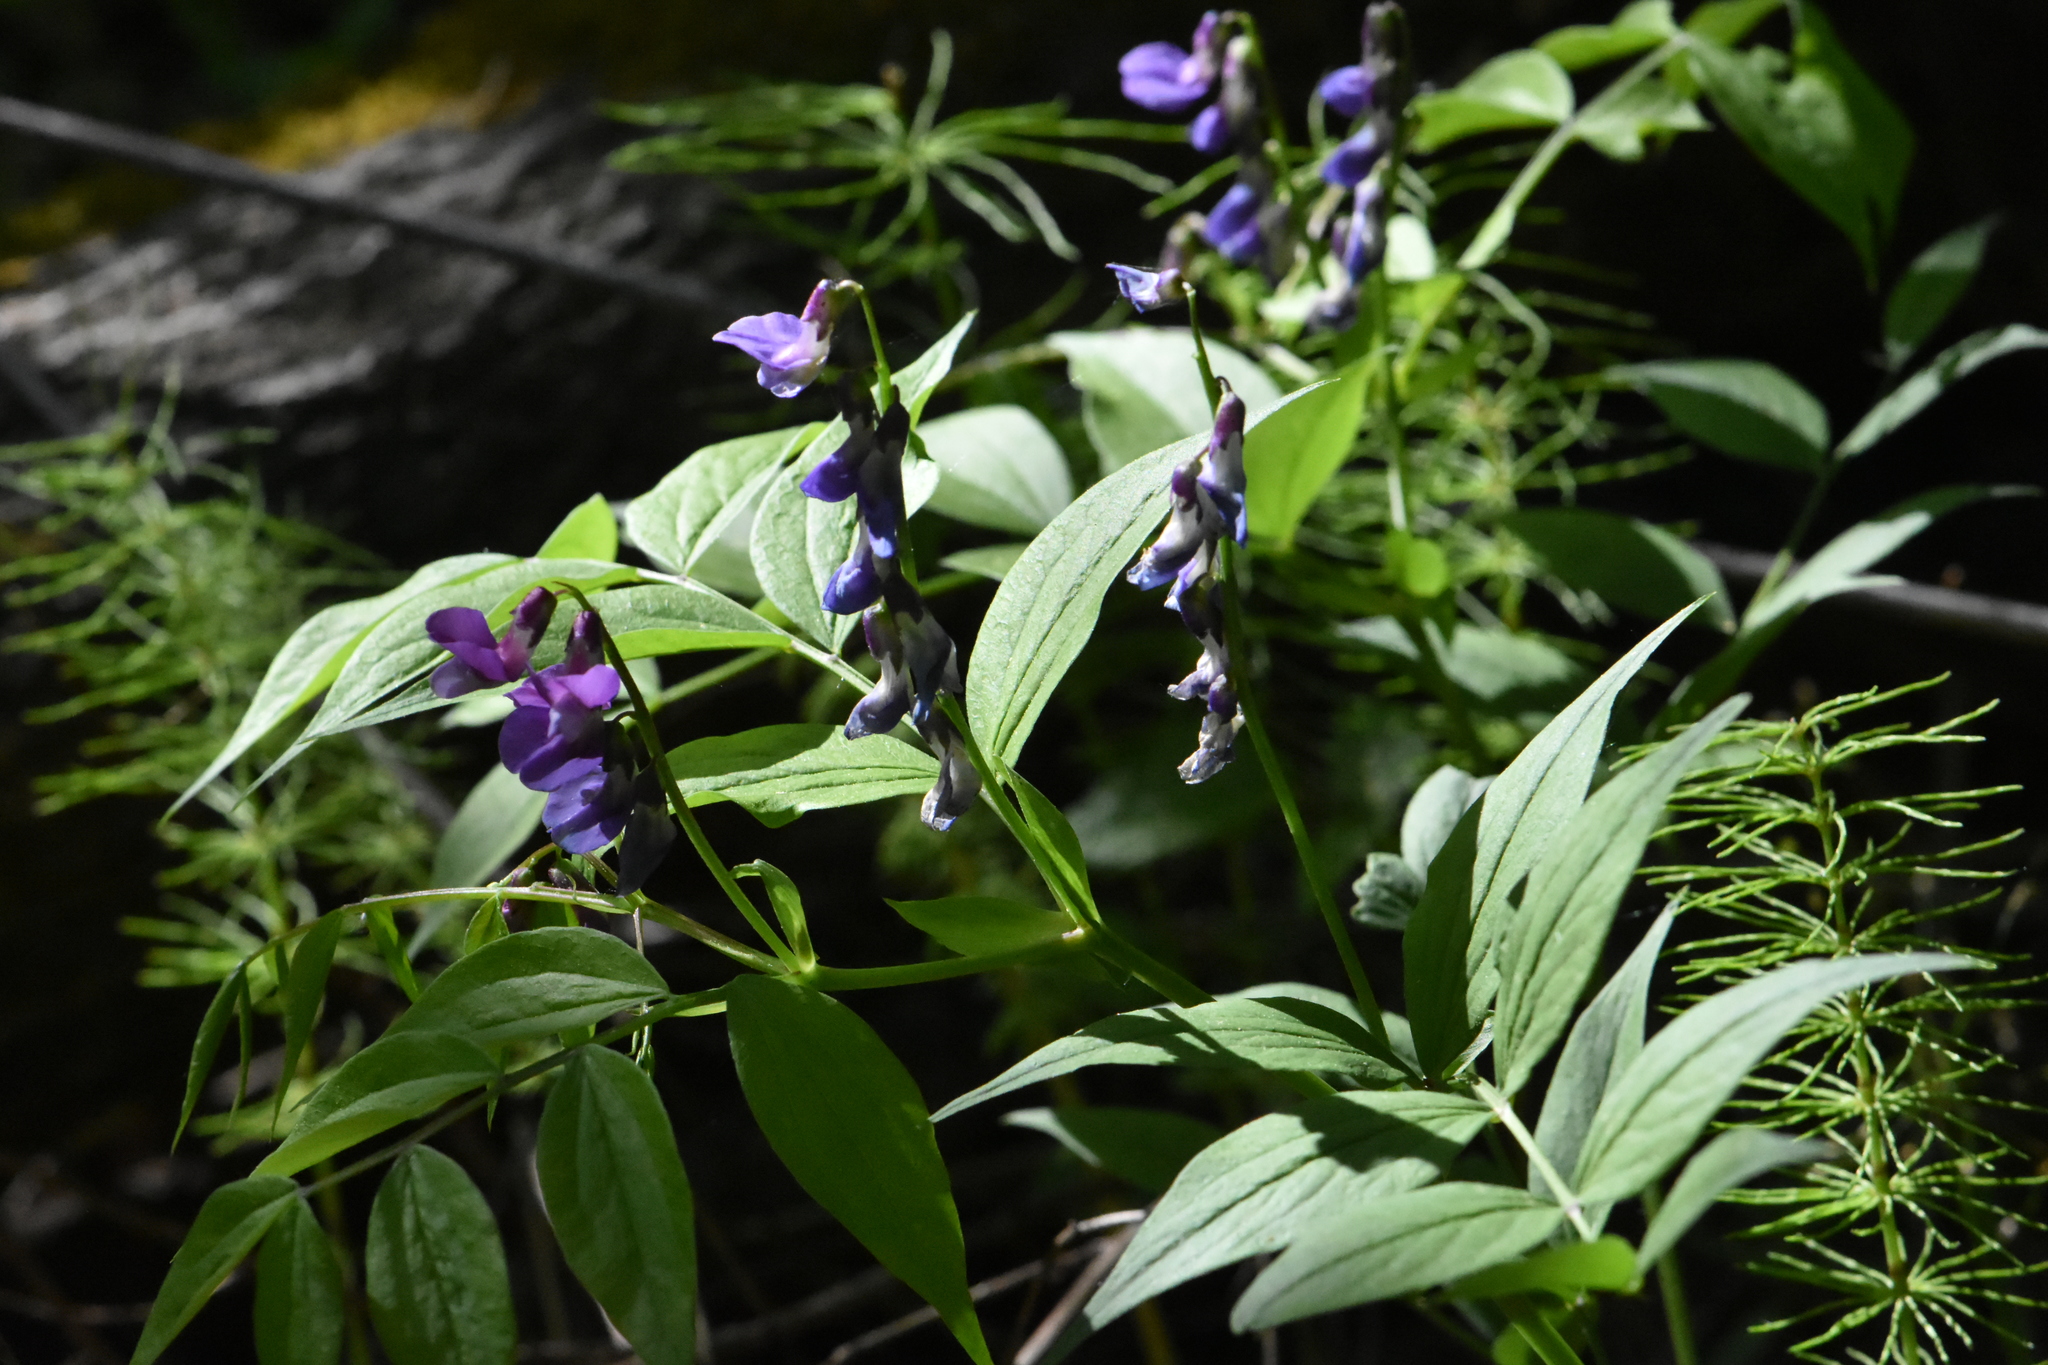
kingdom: Plantae
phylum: Tracheophyta
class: Magnoliopsida
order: Fabales
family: Fabaceae
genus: Lathyrus
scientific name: Lathyrus vernus
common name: Spring pea
